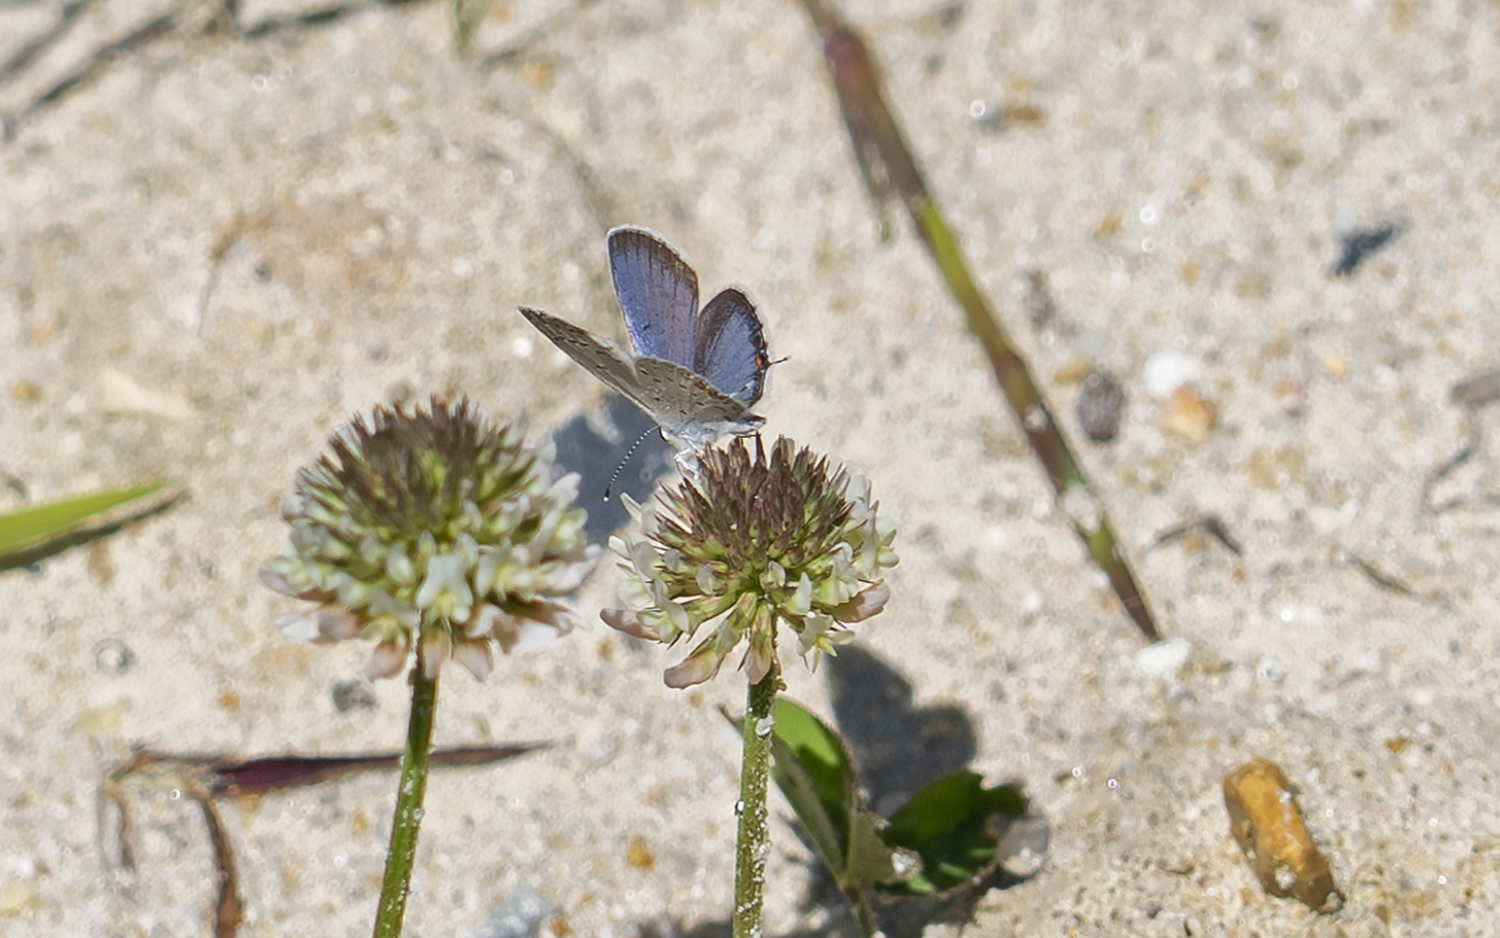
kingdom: Animalia
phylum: Arthropoda
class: Insecta
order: Lepidoptera
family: Lycaenidae
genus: Elkalyce
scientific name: Elkalyce comyntas
